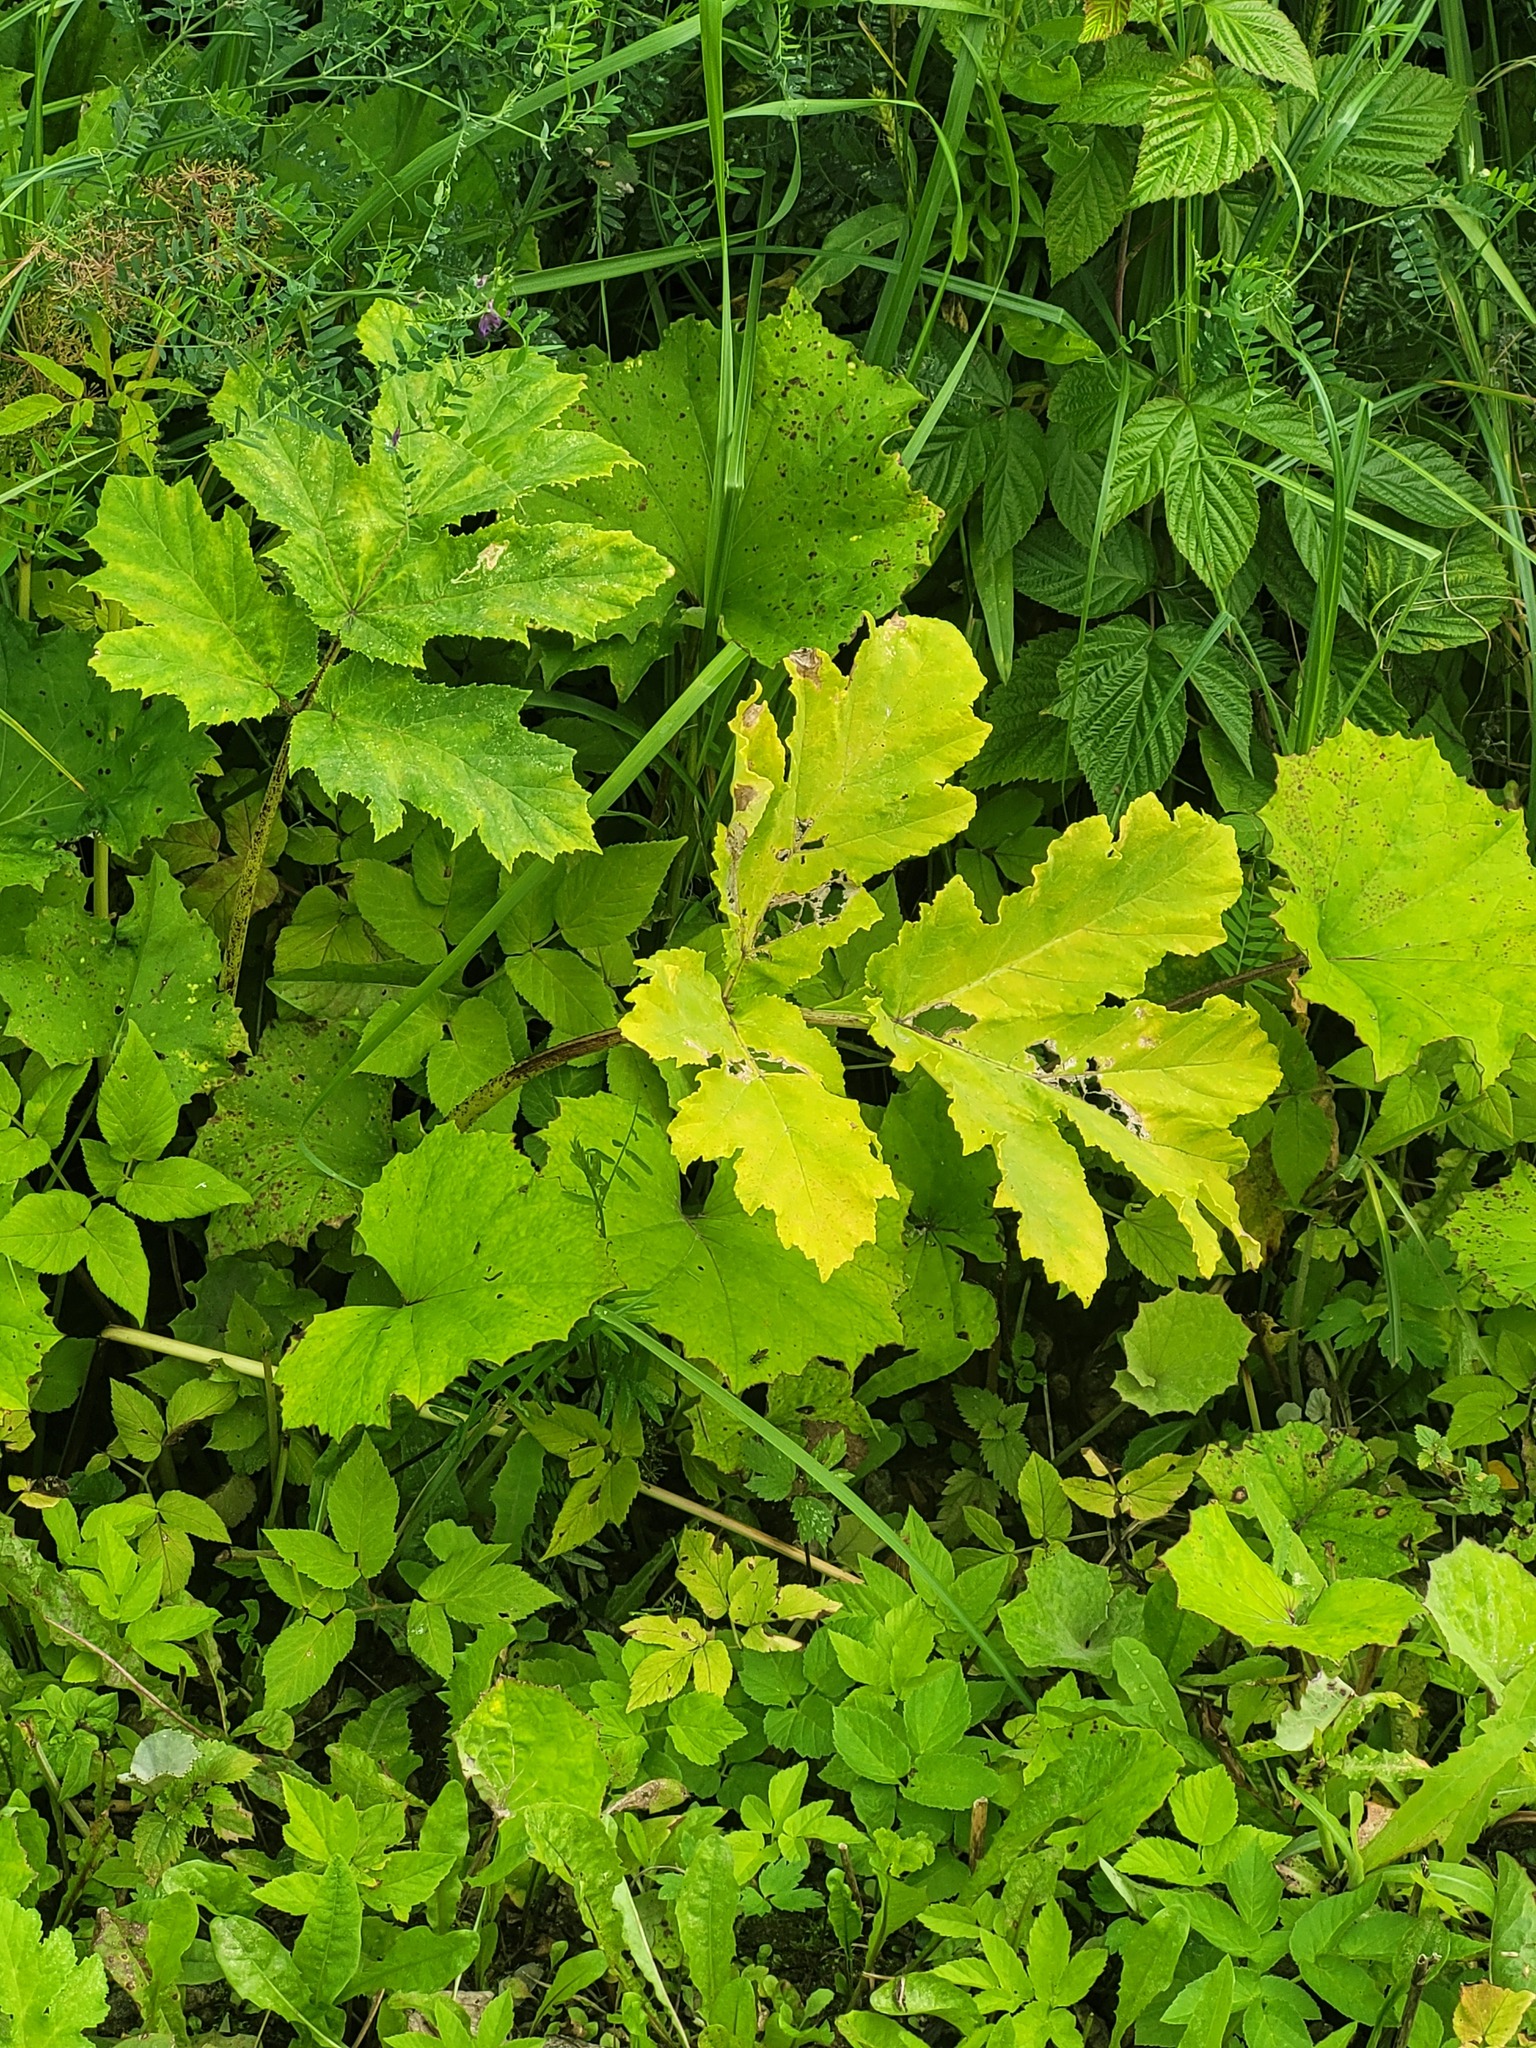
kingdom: Plantae
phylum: Tracheophyta
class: Magnoliopsida
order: Apiales
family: Apiaceae
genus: Heracleum
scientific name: Heracleum sosnowskyi
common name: Sosnowsky's hogweed
